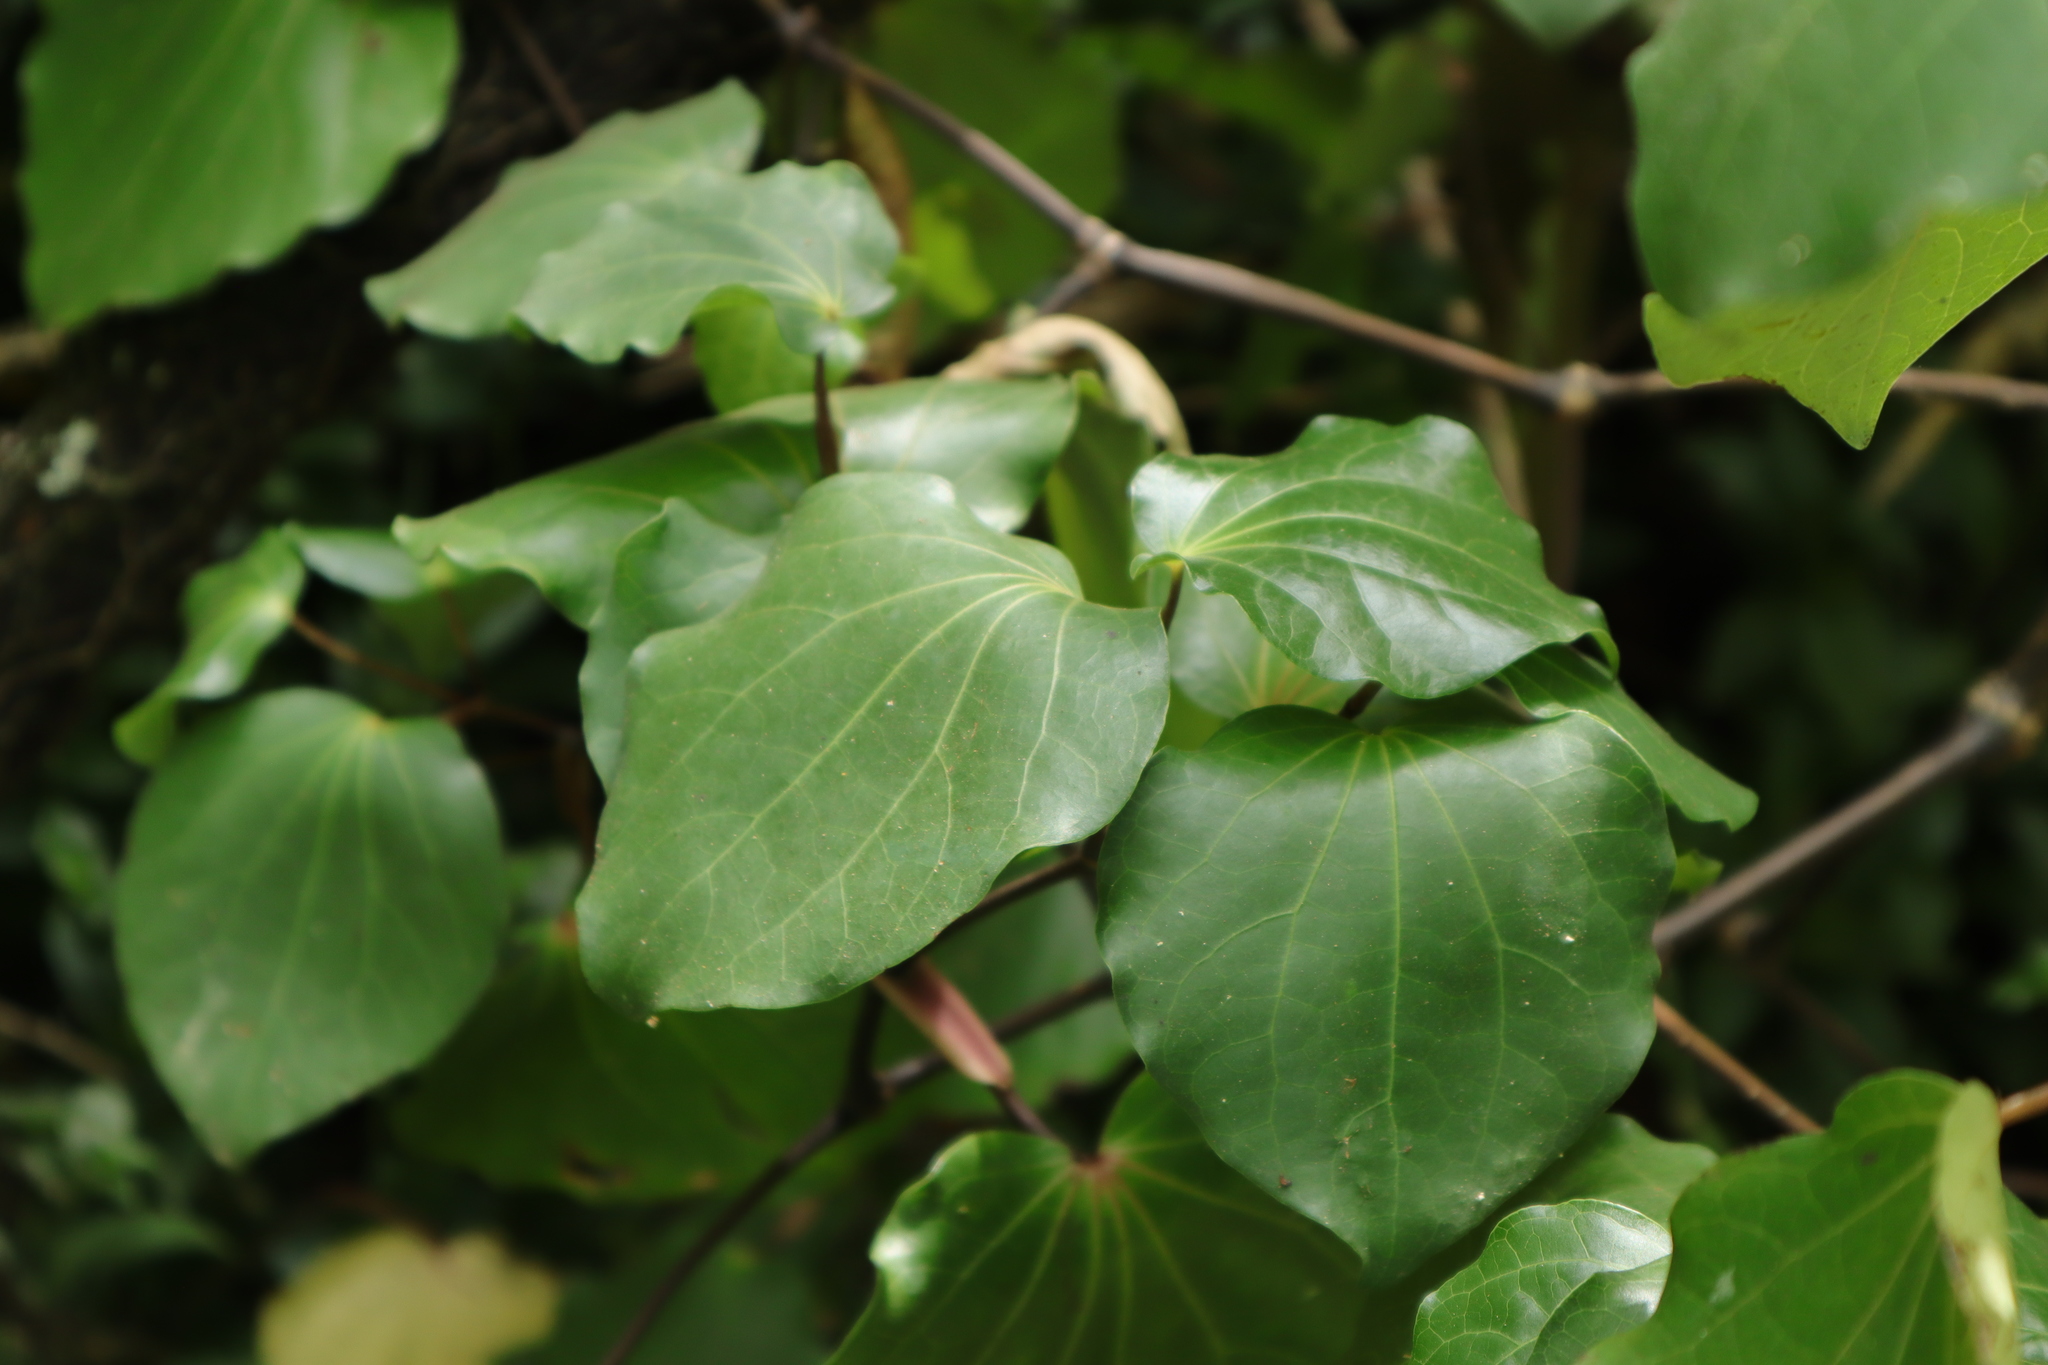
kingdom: Plantae
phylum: Tracheophyta
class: Magnoliopsida
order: Piperales
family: Piperaceae
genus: Macropiper
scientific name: Macropiper excelsum
